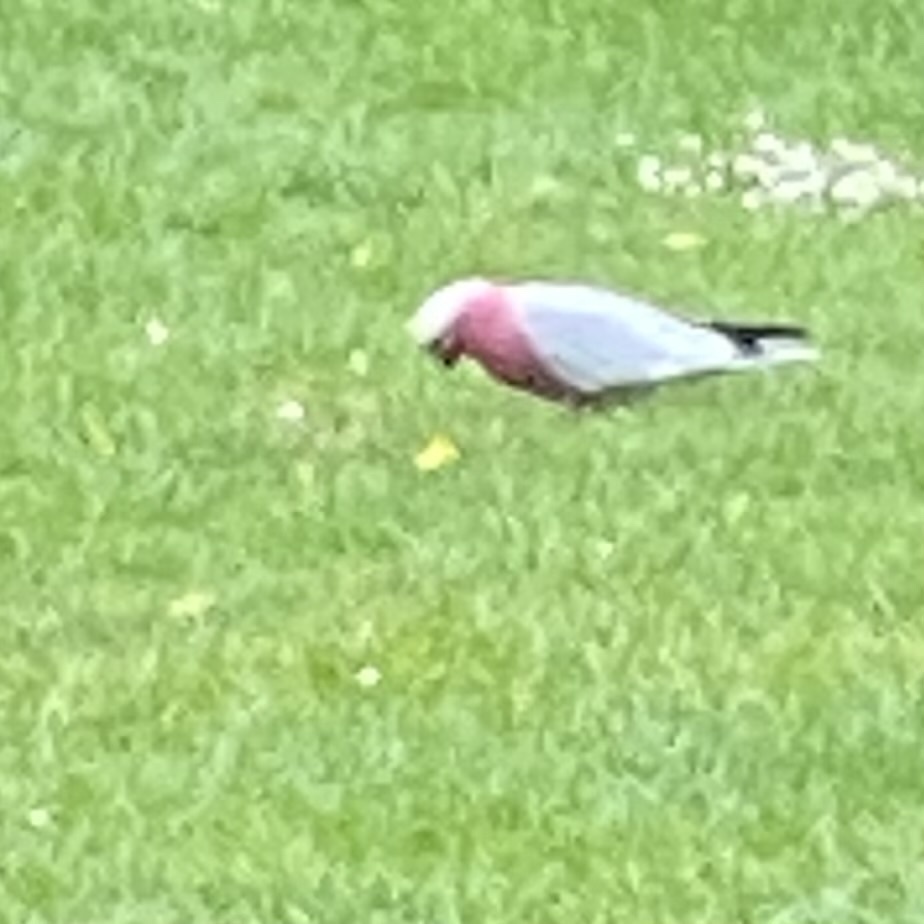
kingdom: Animalia
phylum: Chordata
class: Aves
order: Psittaciformes
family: Psittacidae
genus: Eolophus
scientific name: Eolophus roseicapilla
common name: Galah
